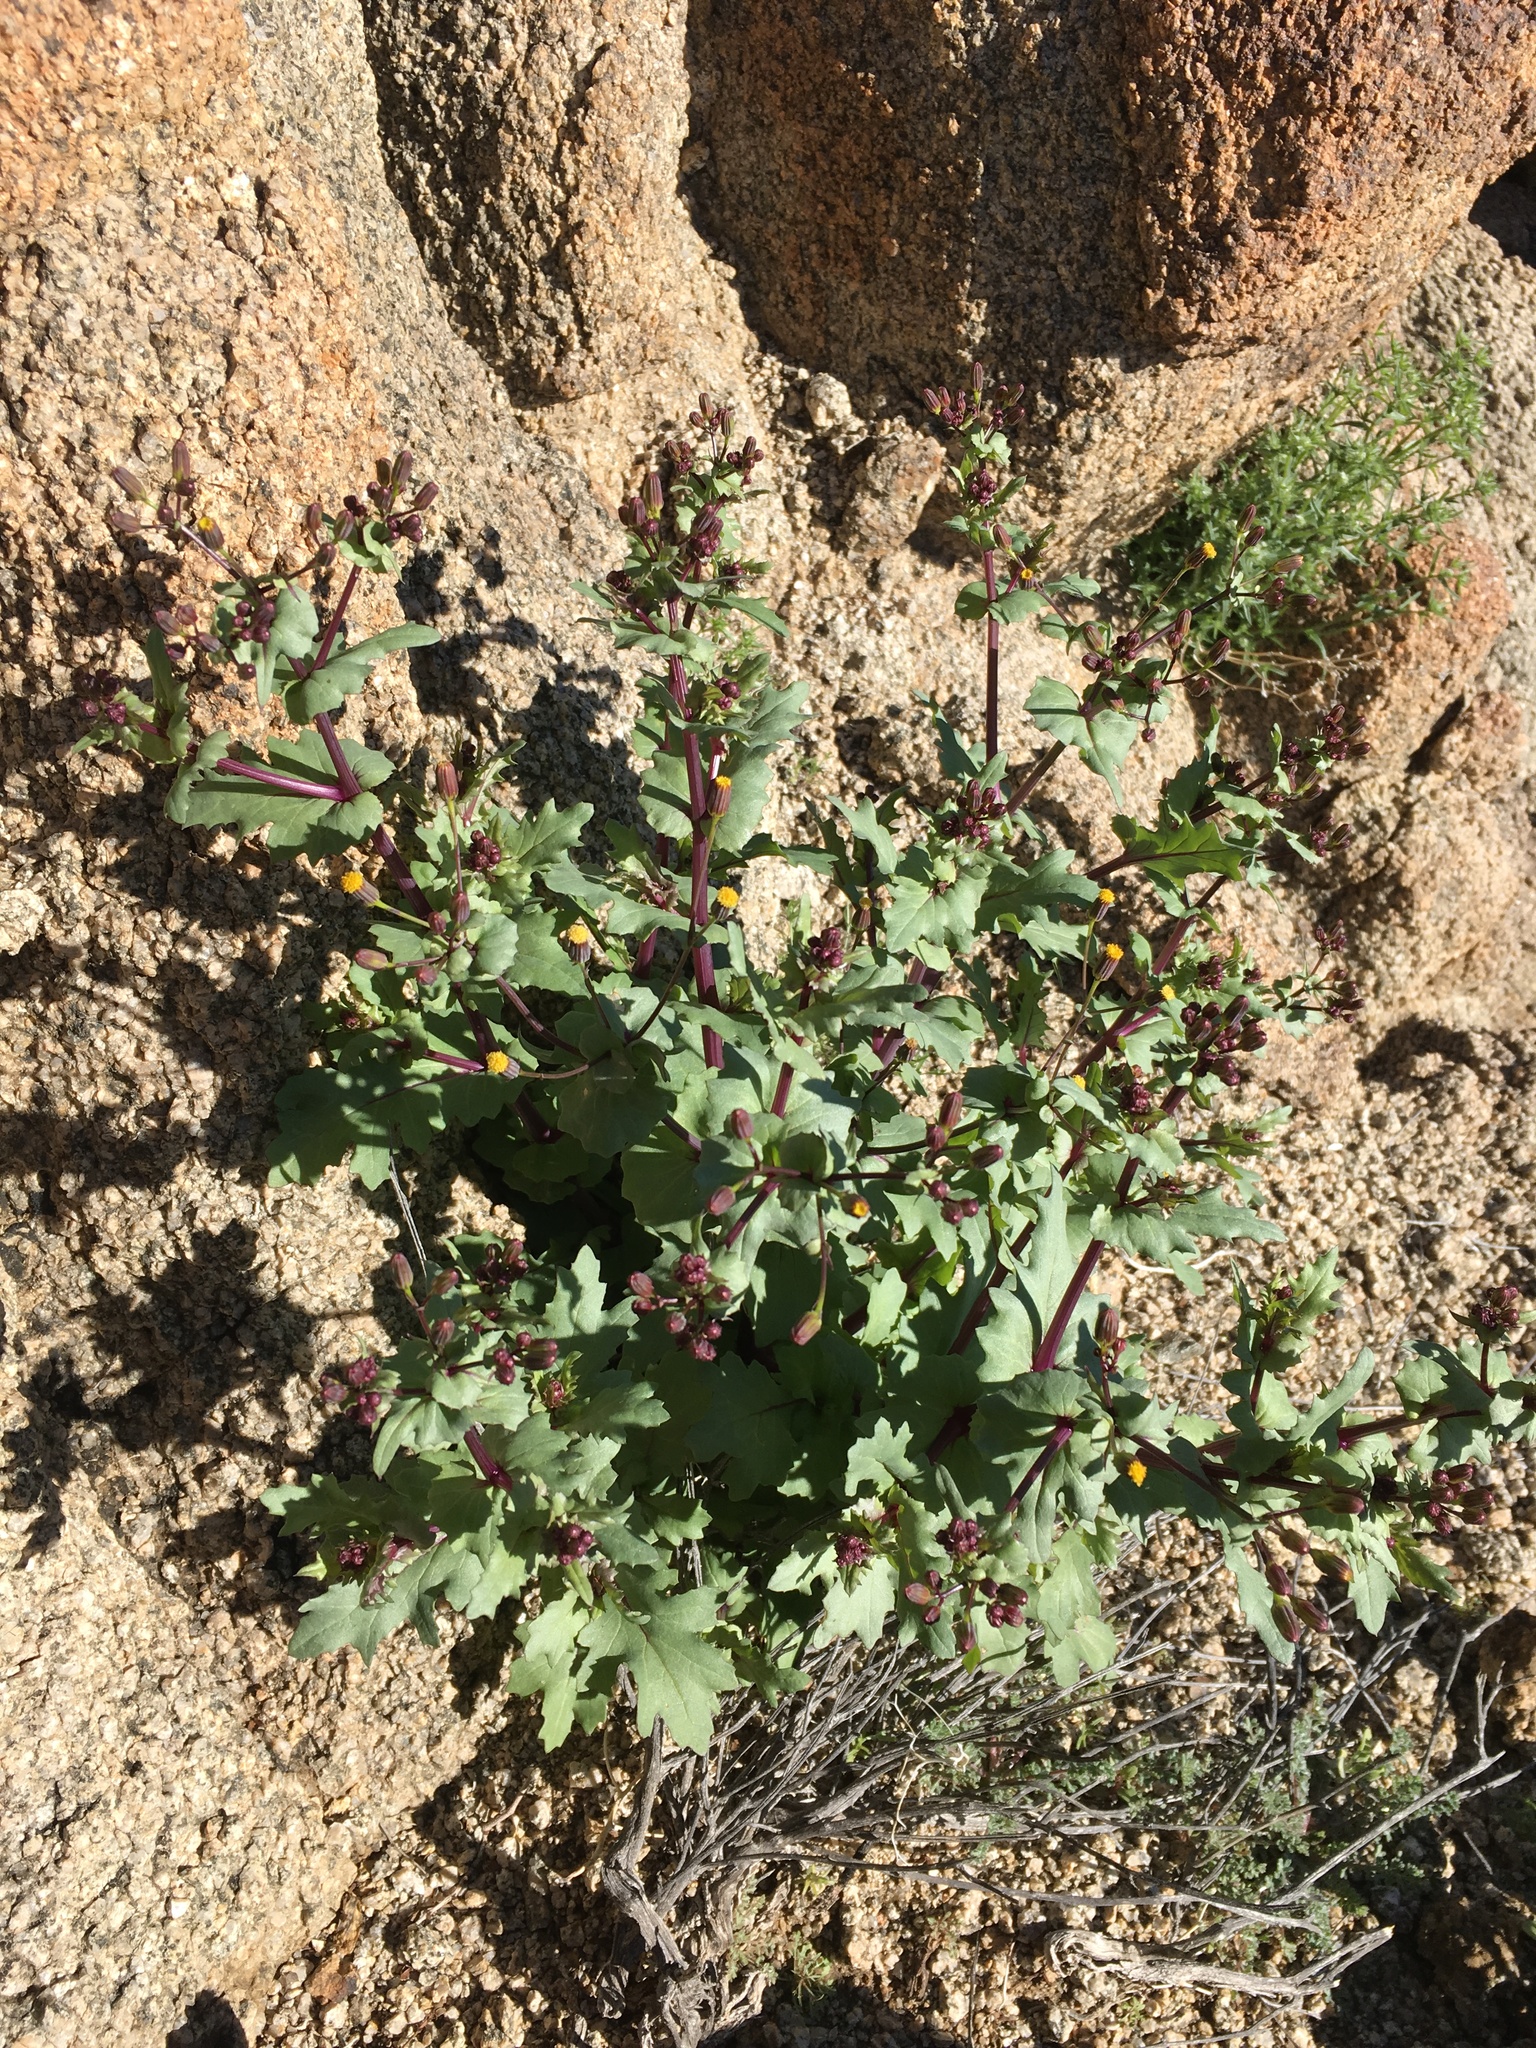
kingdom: Plantae
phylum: Tracheophyta
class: Magnoliopsida
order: Asterales
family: Asteraceae
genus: Senecio
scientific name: Senecio mohavensis
